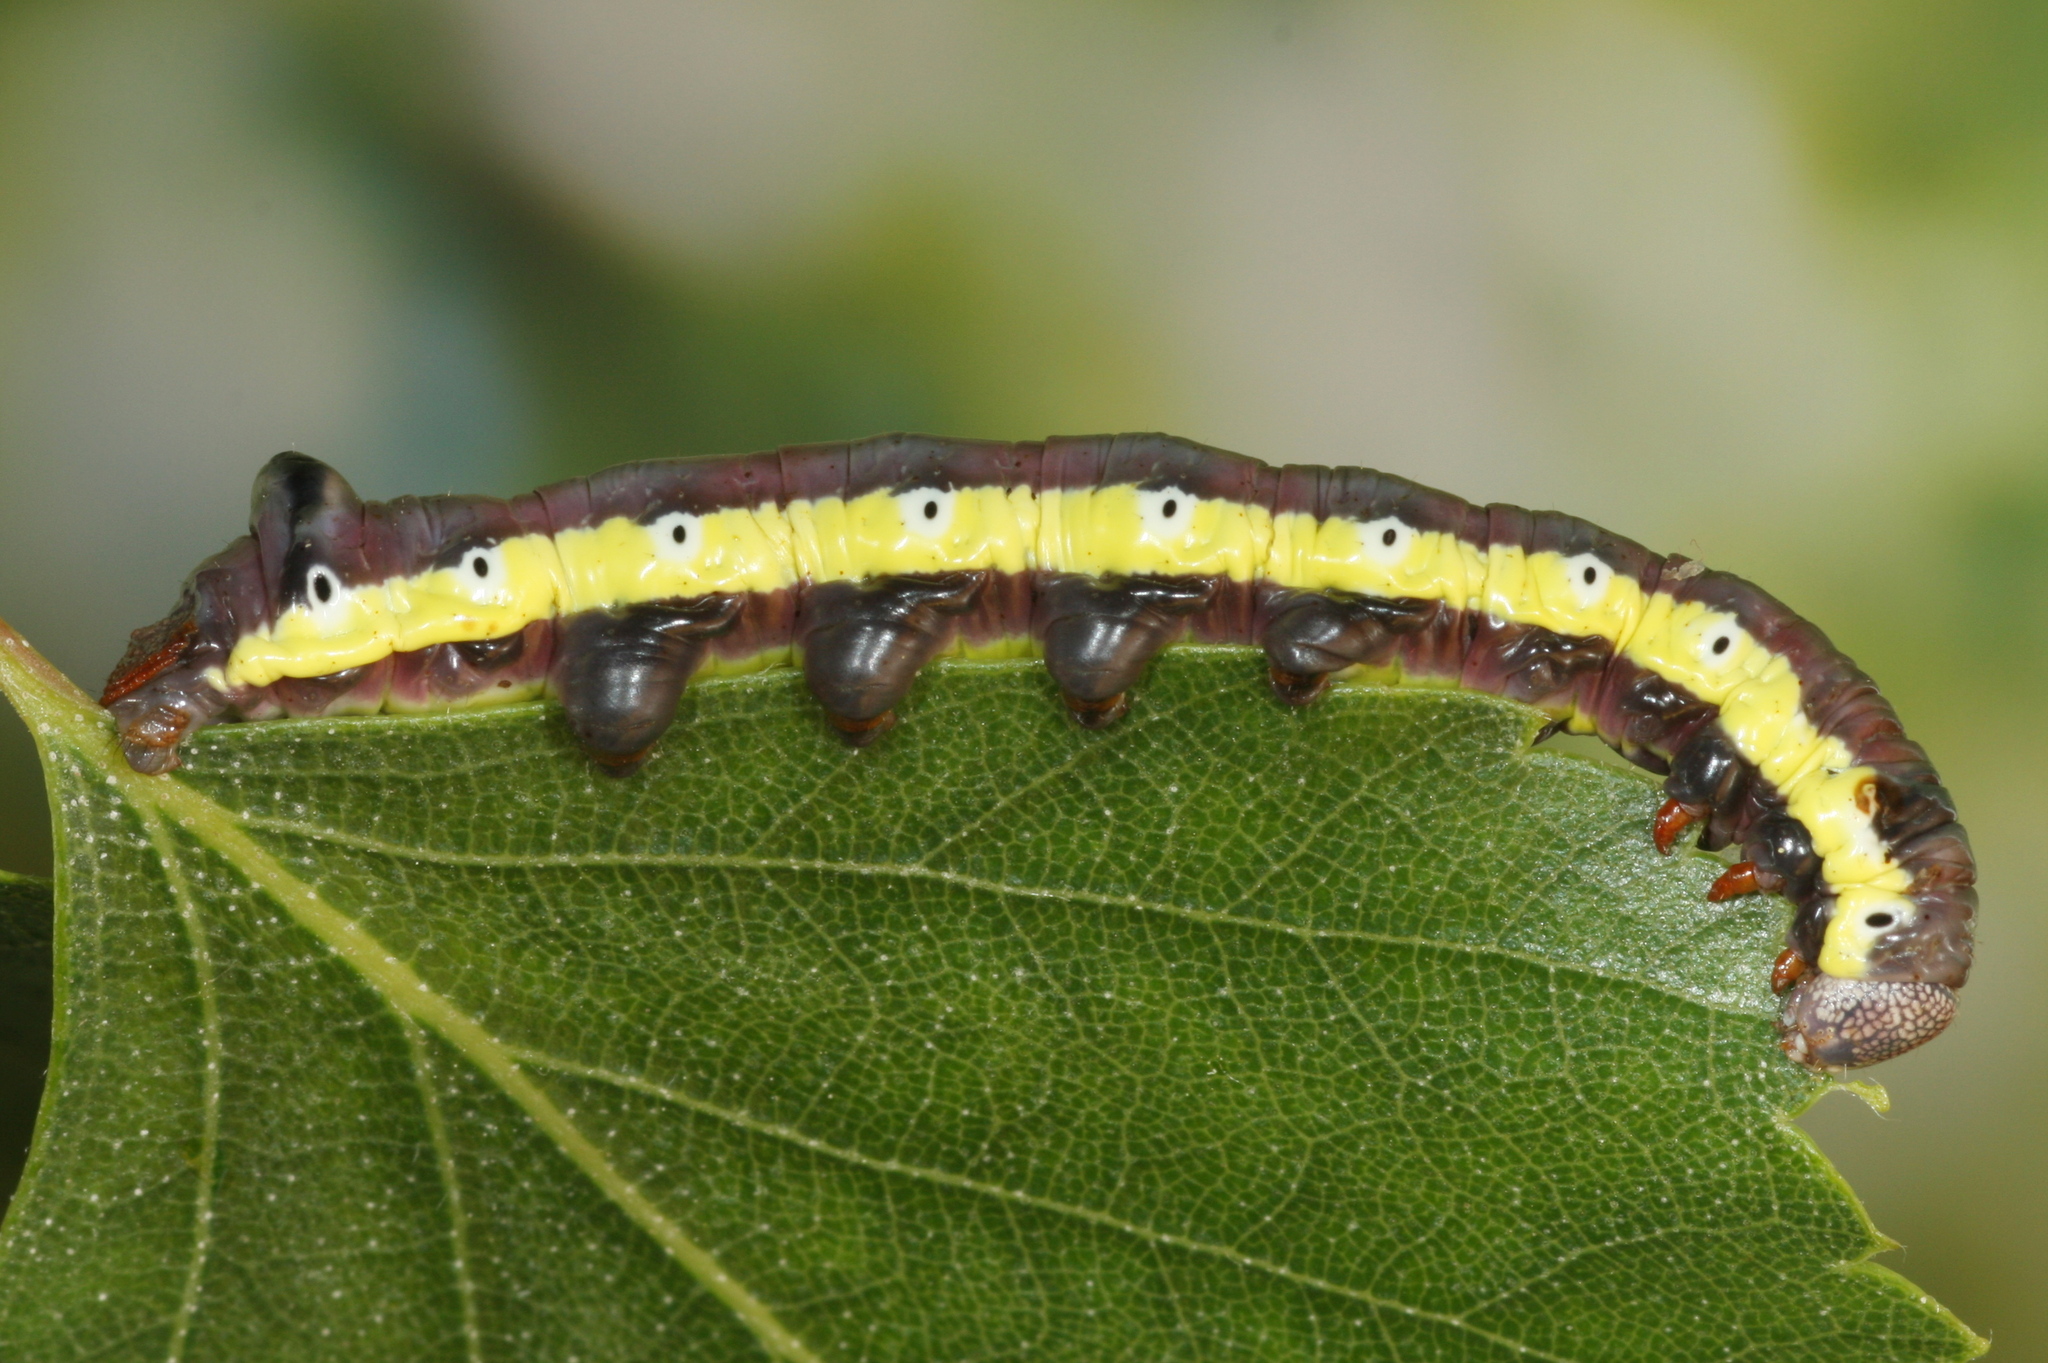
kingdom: Animalia
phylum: Arthropoda
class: Insecta
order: Lepidoptera
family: Notodontidae
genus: Pheosia
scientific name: Pheosia gnoma
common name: Lesser swallow prominent
